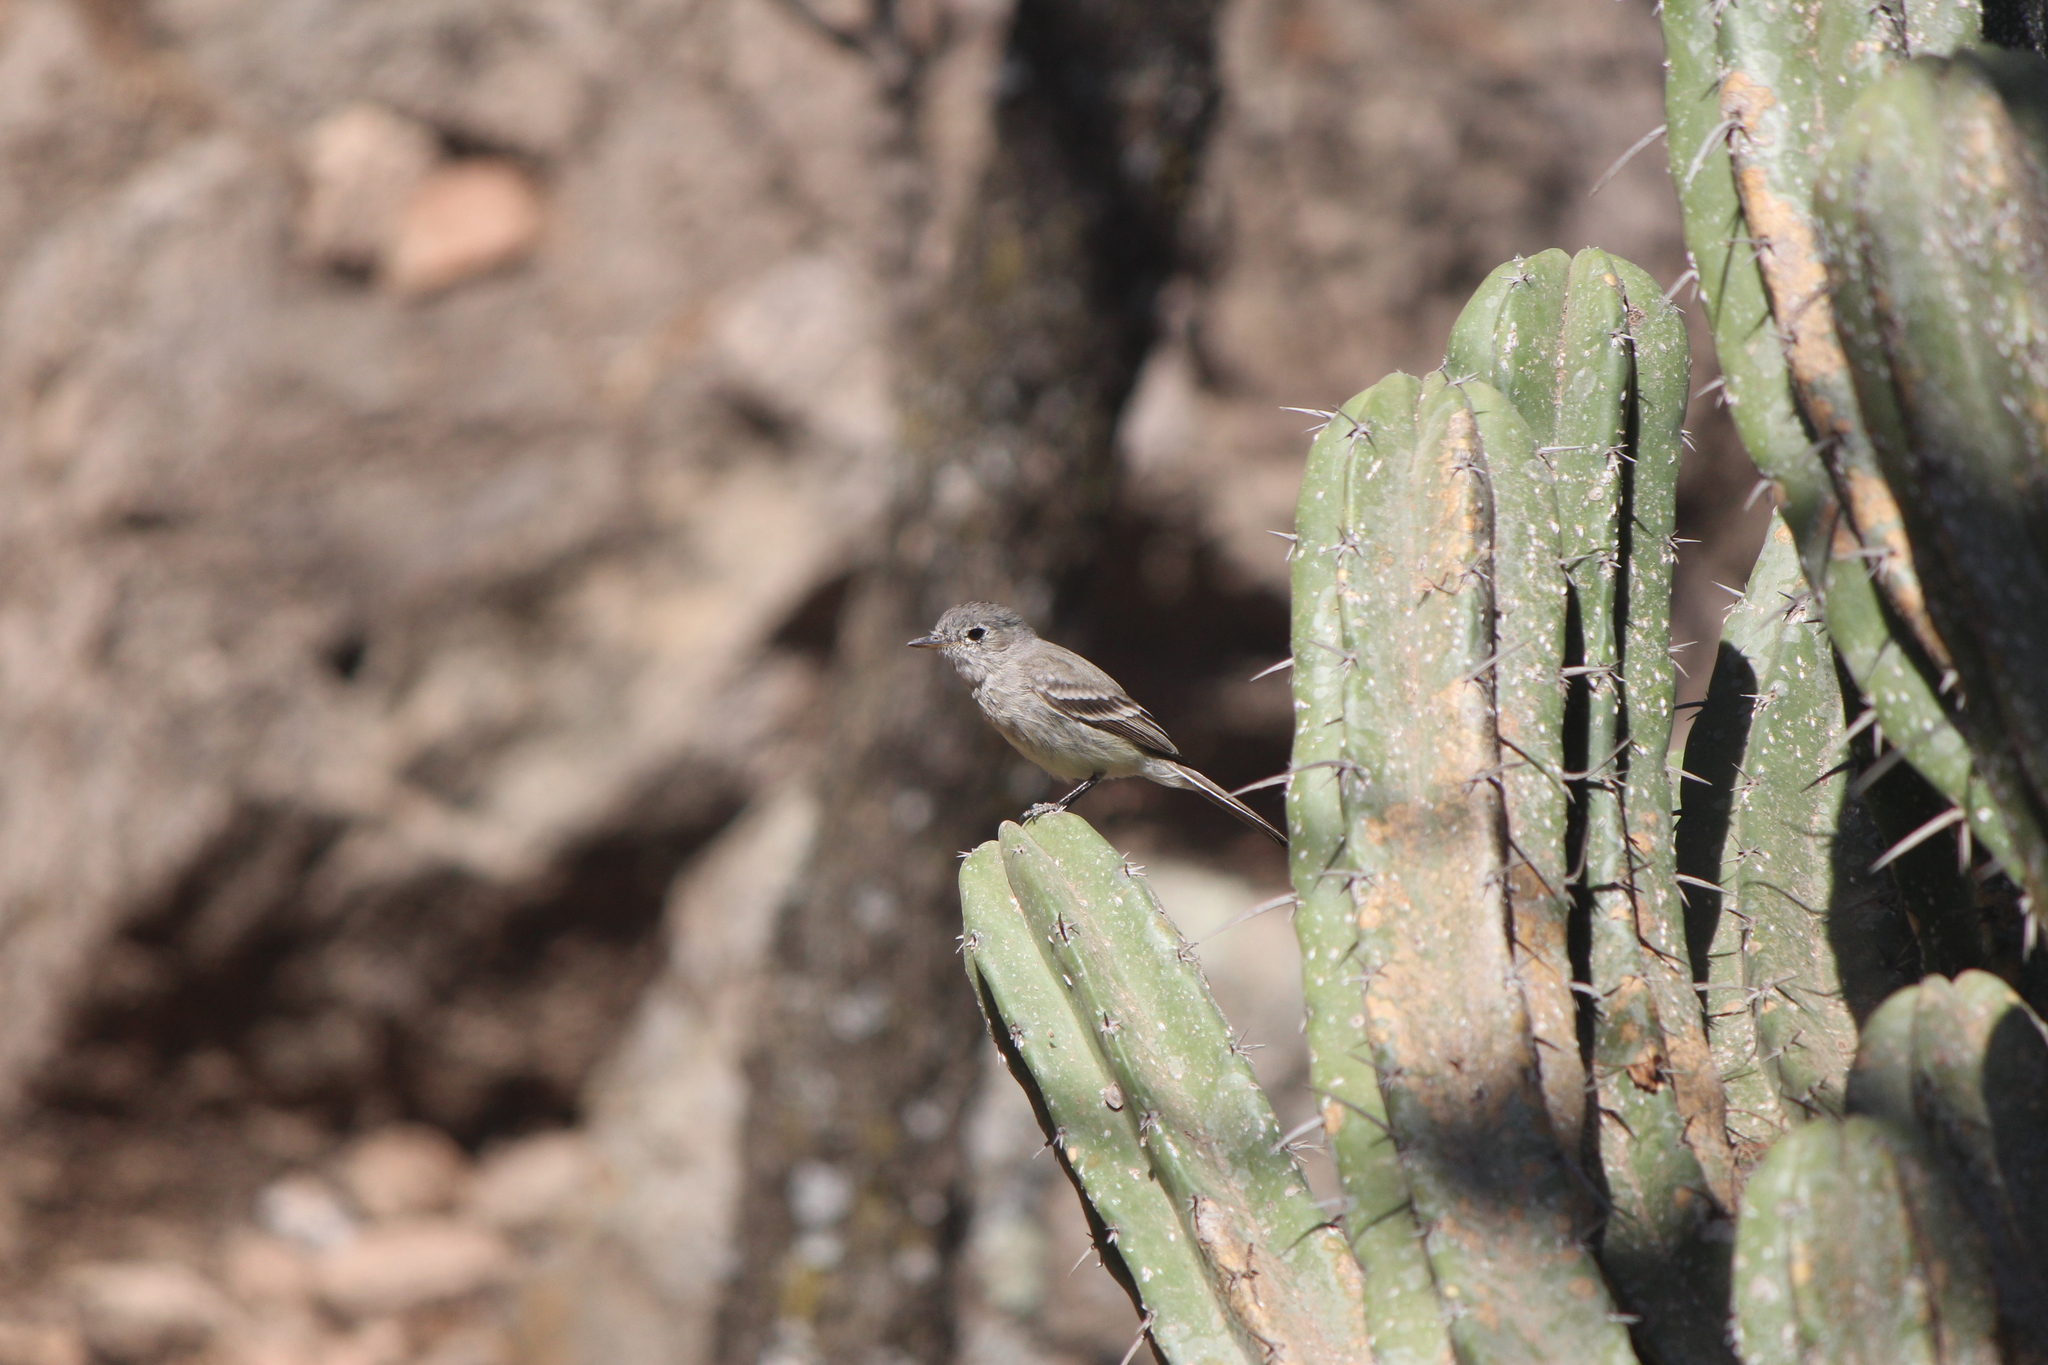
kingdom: Animalia
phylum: Chordata
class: Aves
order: Passeriformes
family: Tyrannidae
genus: Empidonax
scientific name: Empidonax wrightii
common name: Gray flycatcher
